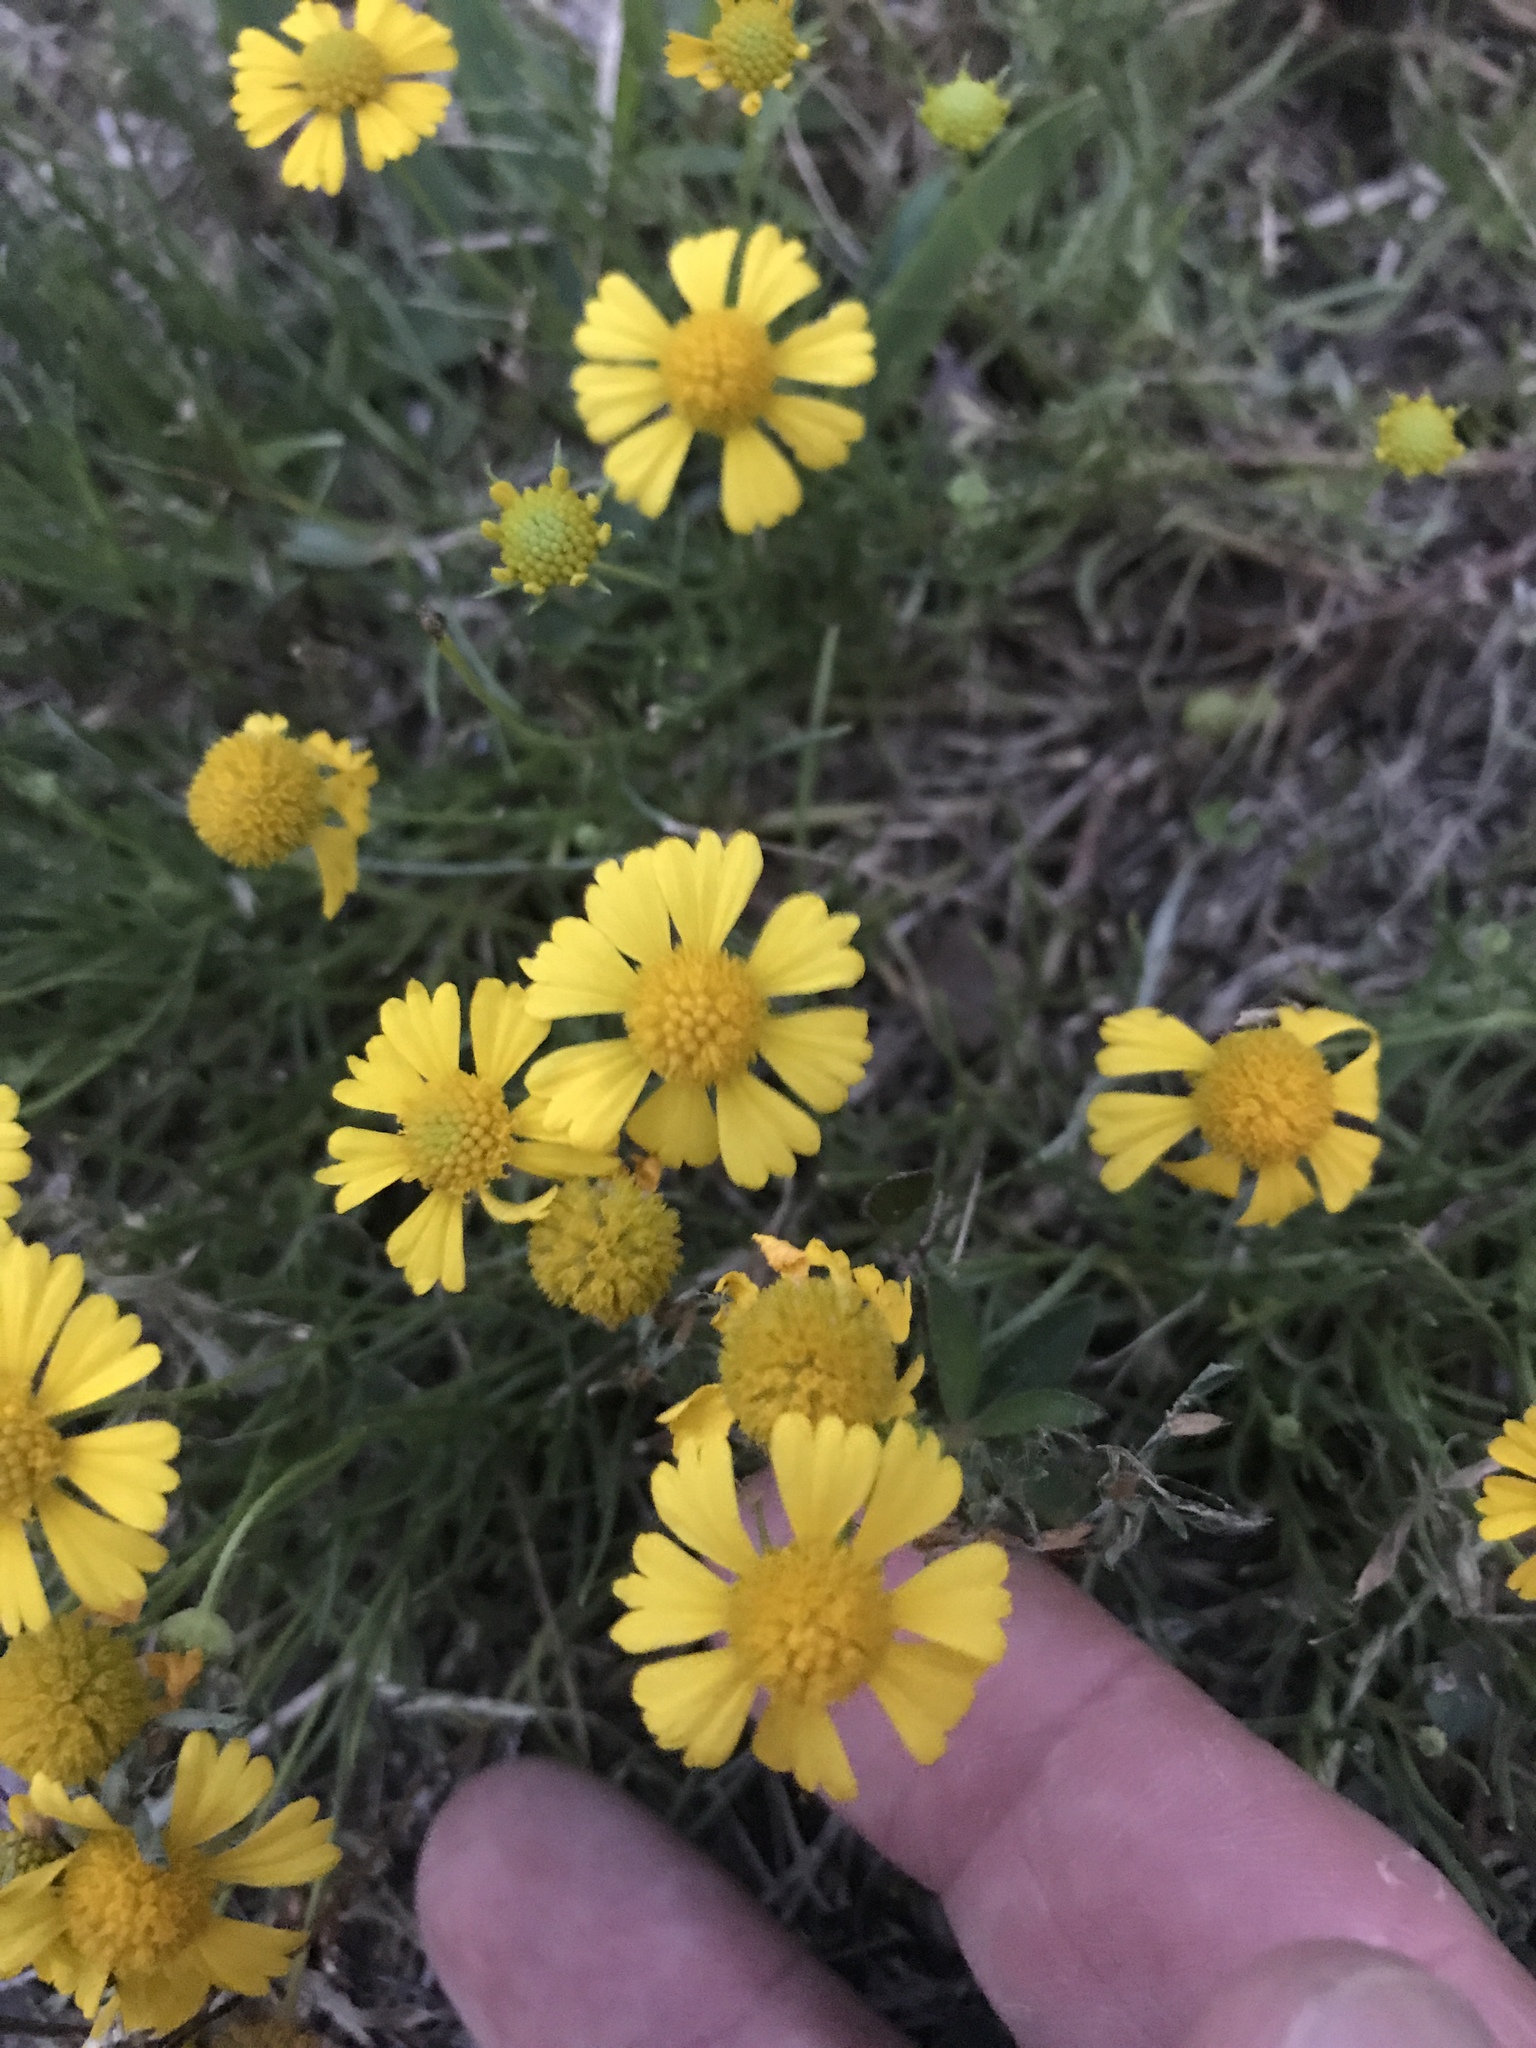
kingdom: Plantae
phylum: Tracheophyta
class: Magnoliopsida
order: Asterales
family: Asteraceae
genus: Helenium
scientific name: Helenium amarum
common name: Bitter sneezeweed
